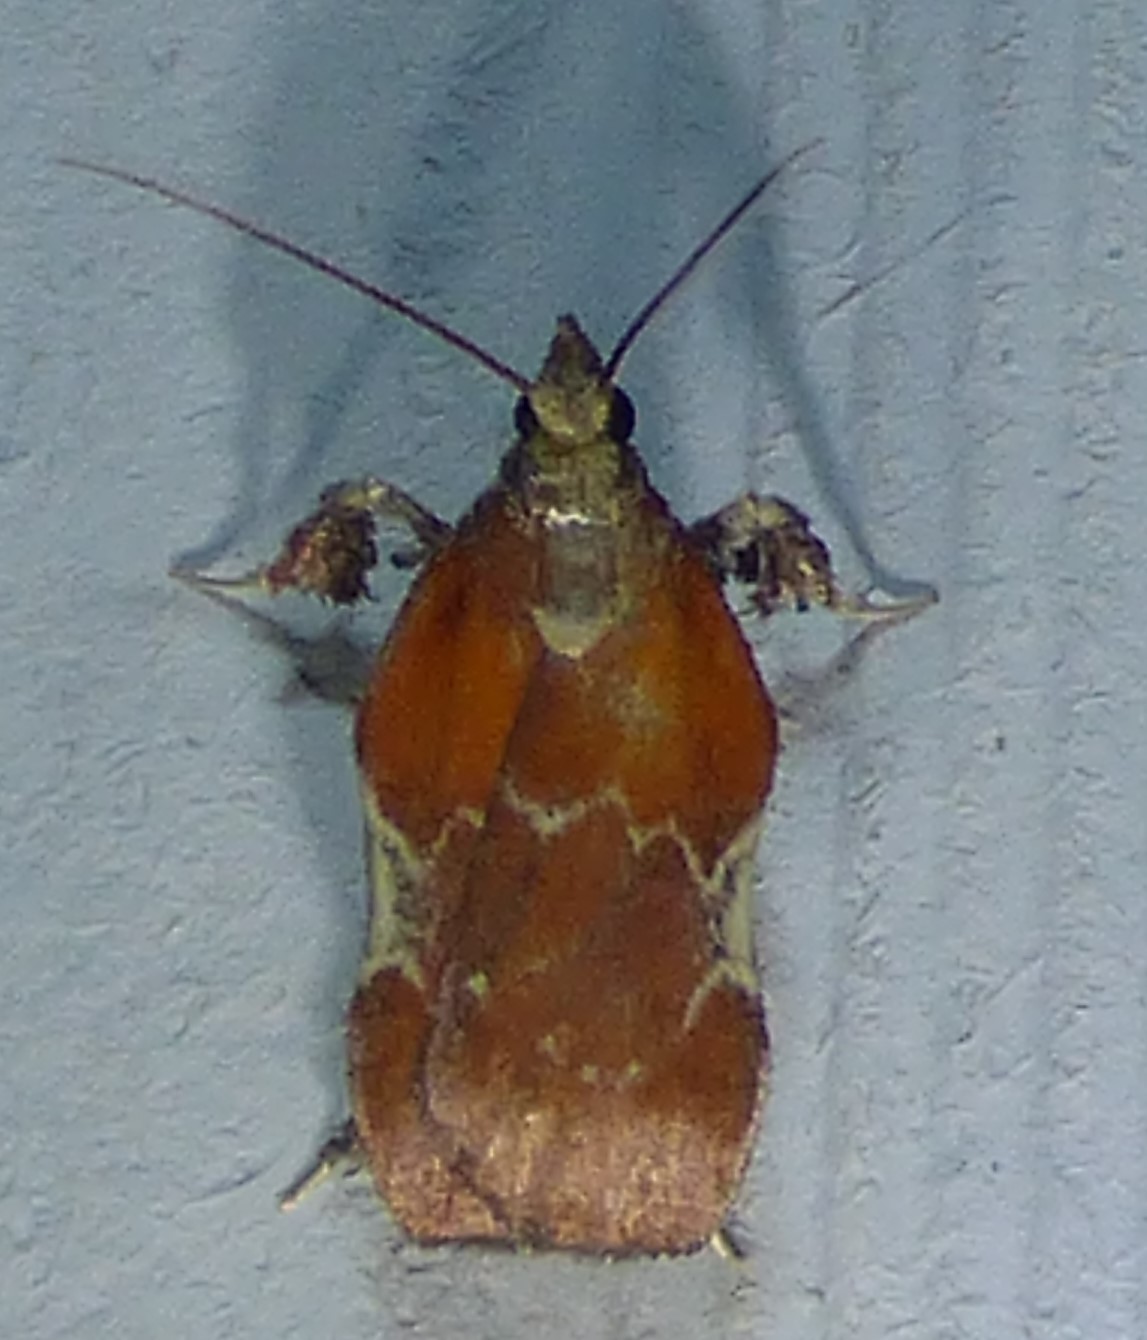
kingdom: Animalia
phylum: Arthropoda
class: Insecta
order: Lepidoptera
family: Pyralidae
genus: Galasa
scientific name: Galasa nigrinodis
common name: Boxwood leaftier moth
